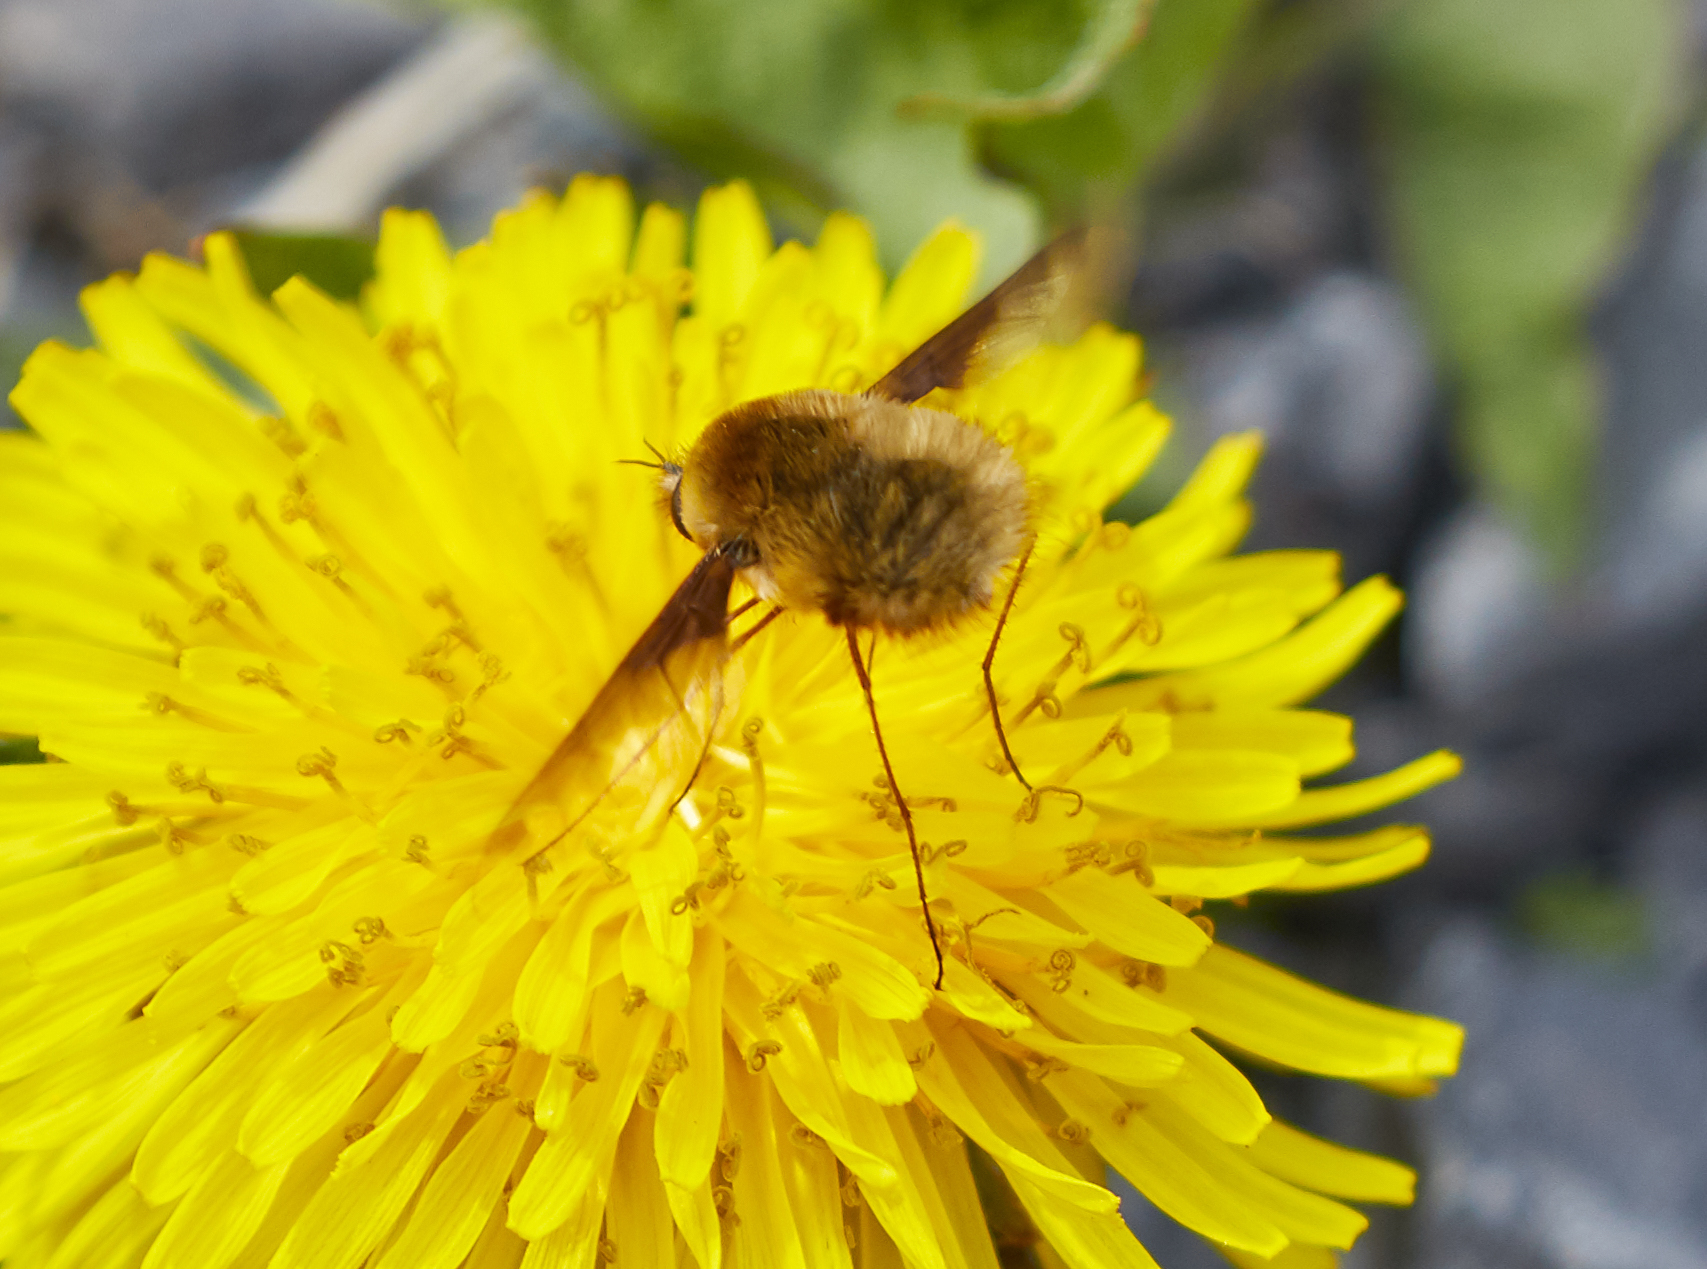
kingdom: Animalia
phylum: Arthropoda
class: Insecta
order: Diptera
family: Bombyliidae
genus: Bombylius
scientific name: Bombylius major
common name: Bee fly
